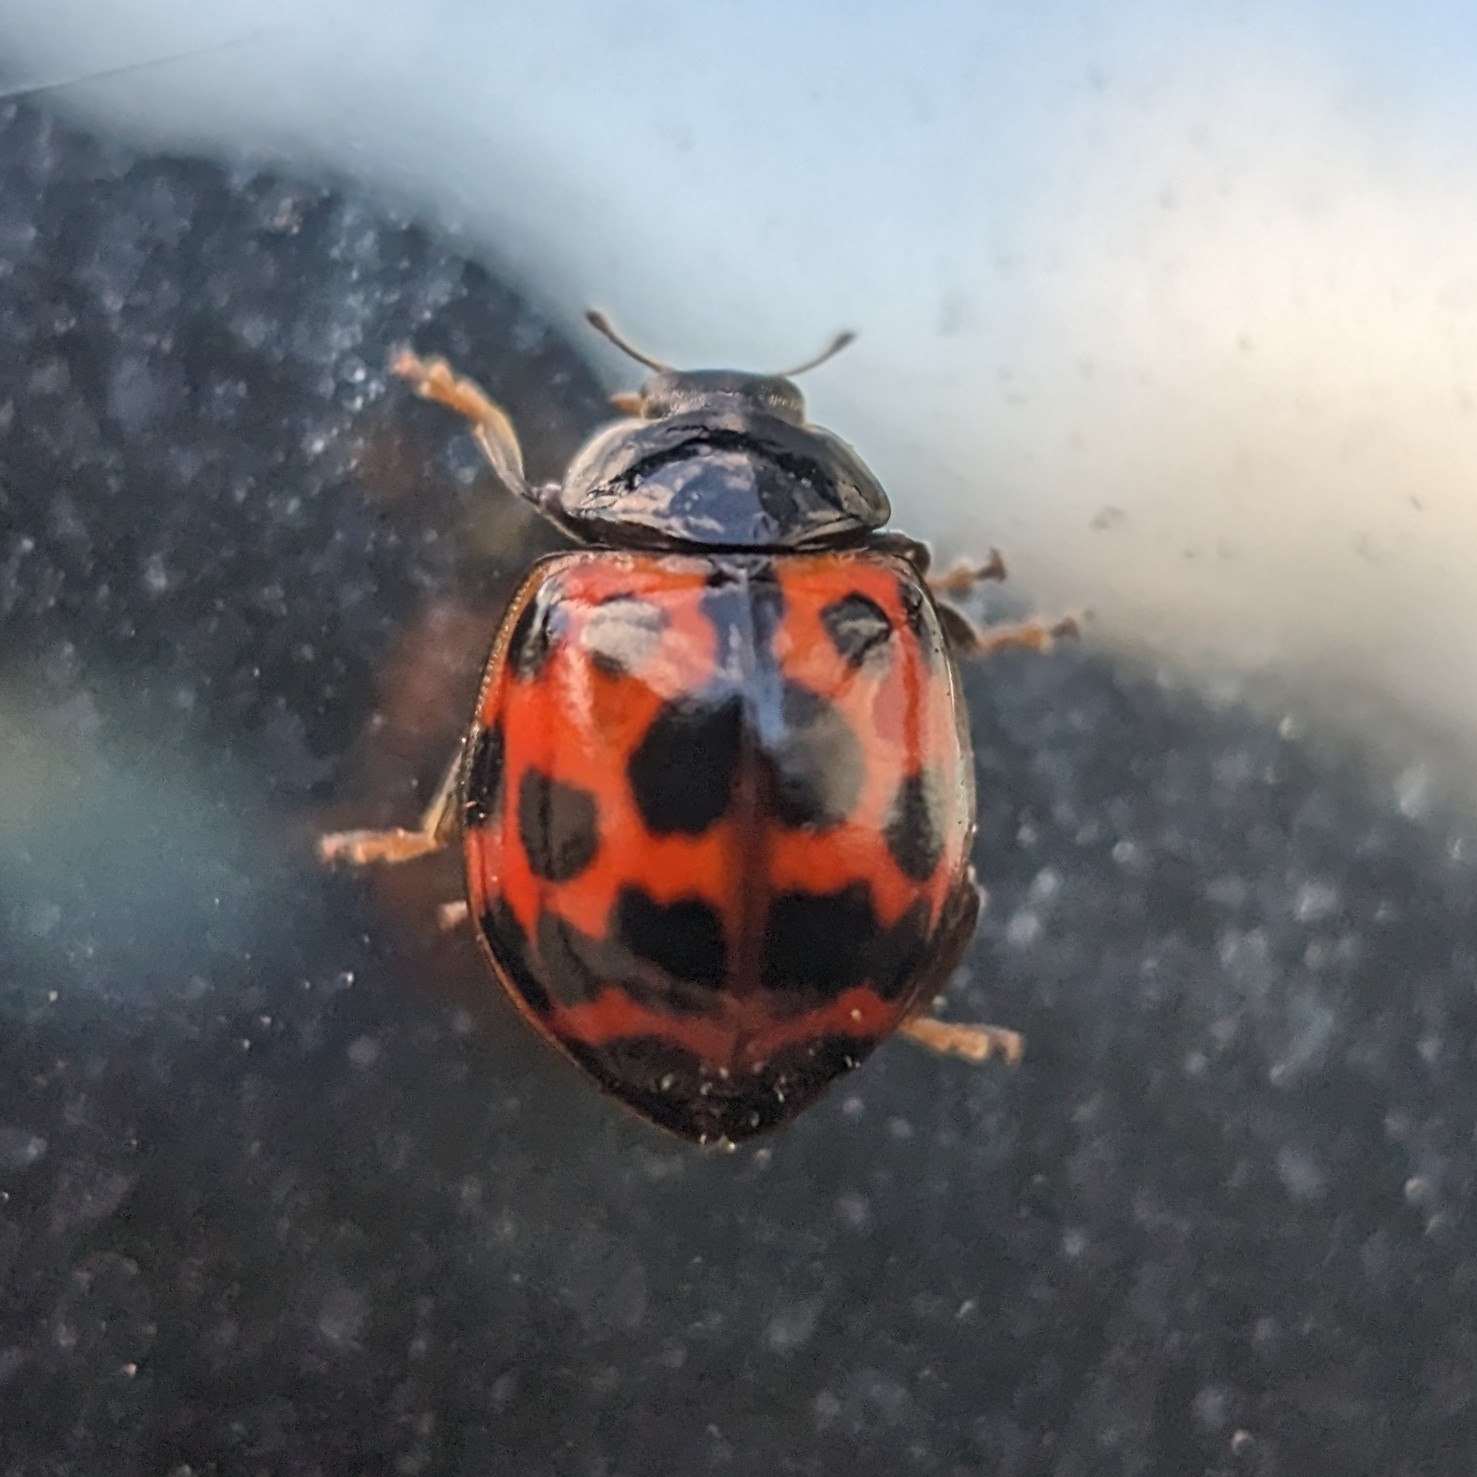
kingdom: Animalia
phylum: Arthropoda
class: Insecta
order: Coleoptera
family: Coccinellidae
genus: Harmonia
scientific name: Harmonia axyridis
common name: Harlequin ladybird
